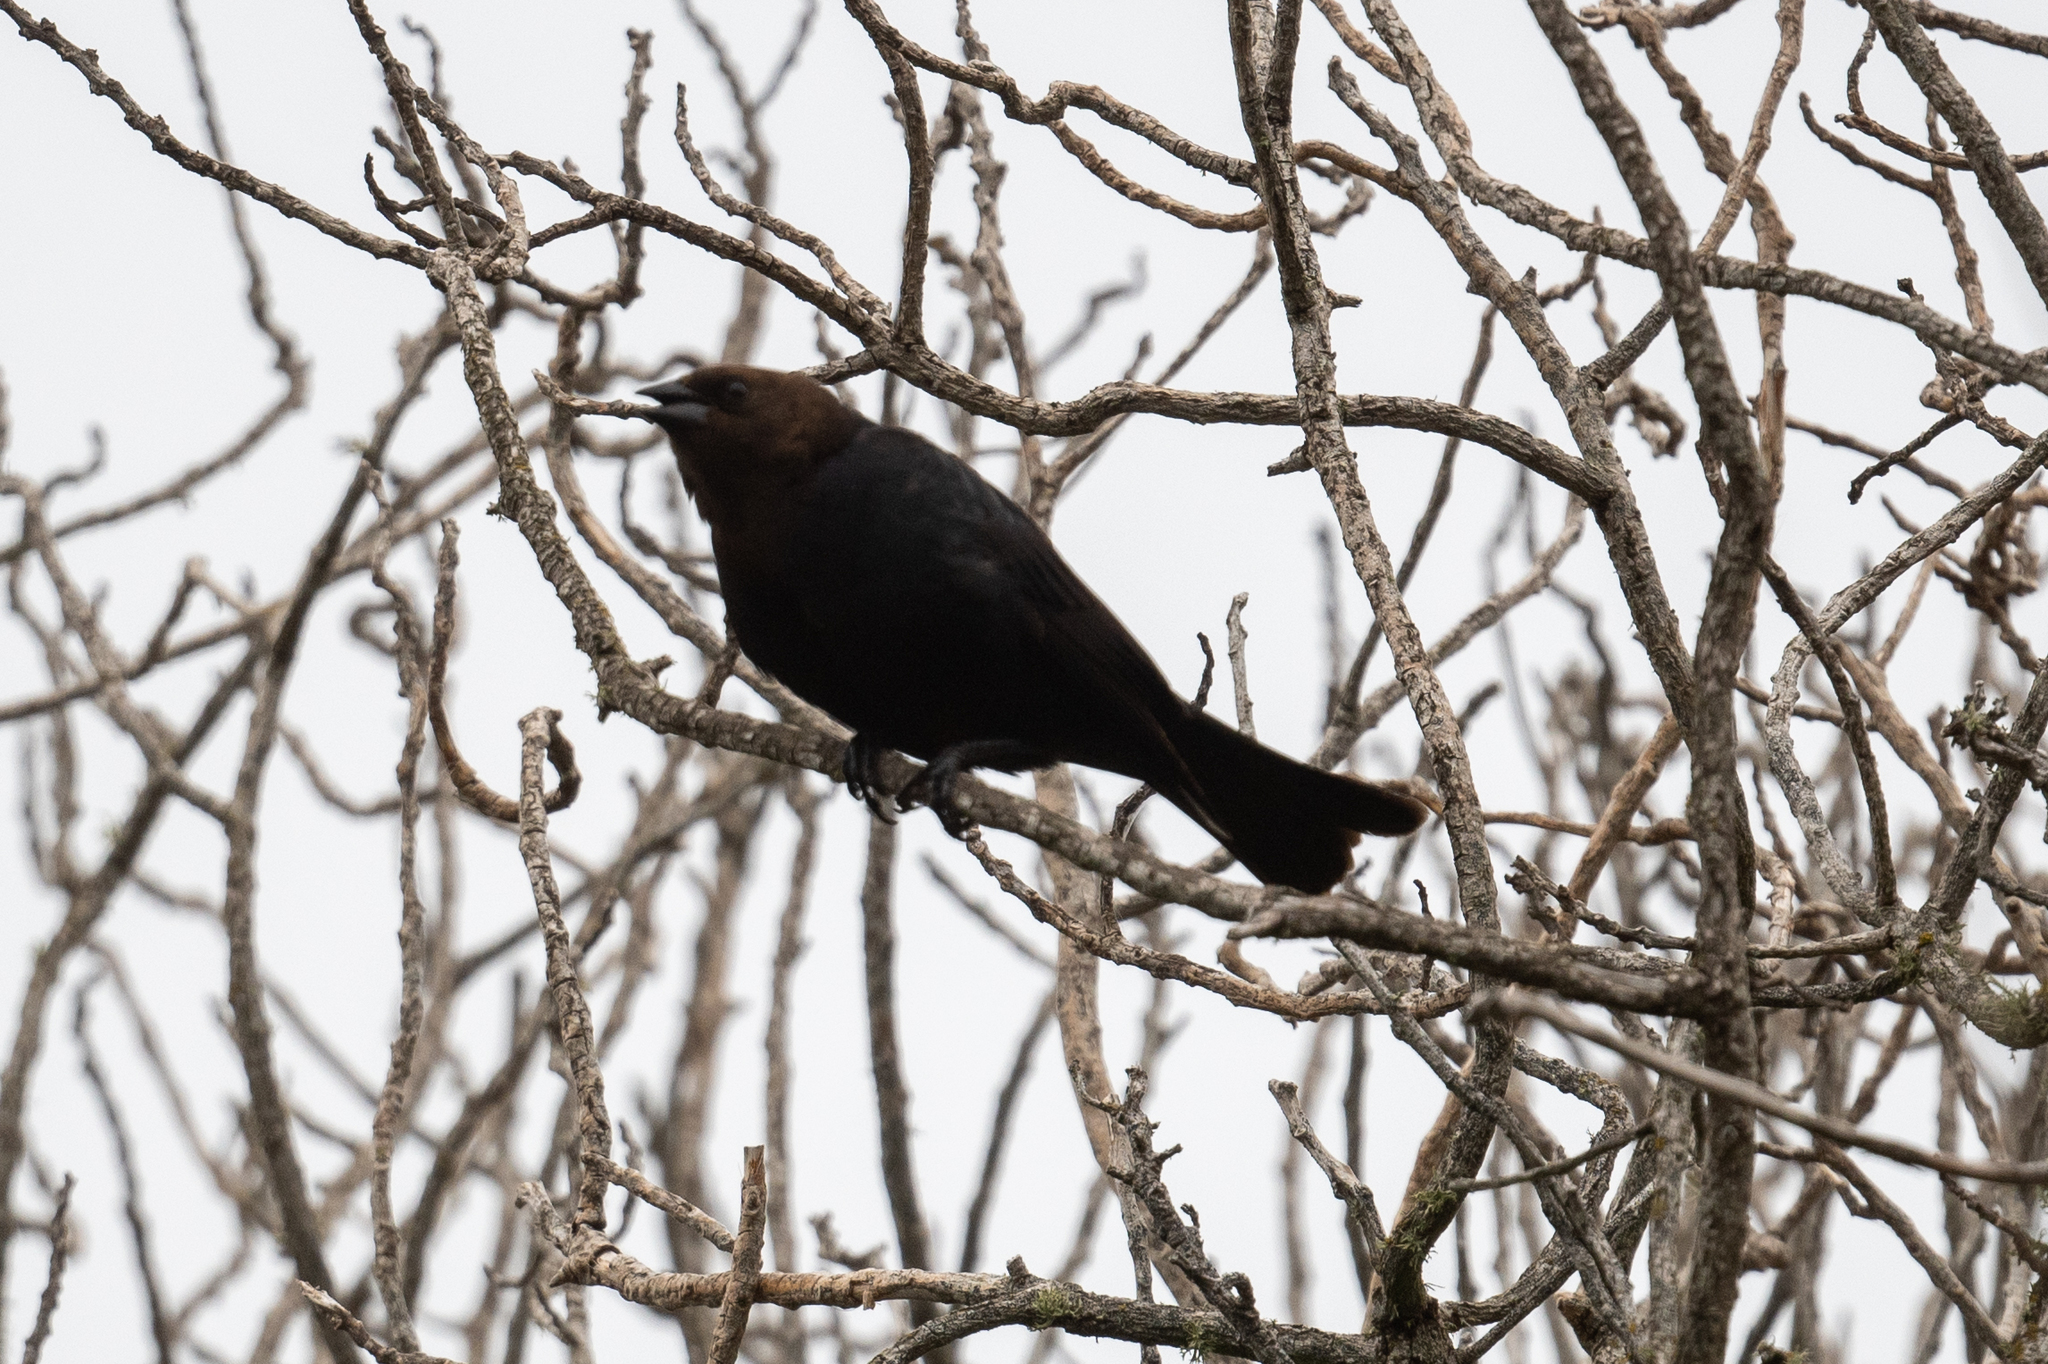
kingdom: Animalia
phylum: Chordata
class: Aves
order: Passeriformes
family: Icteridae
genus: Molothrus
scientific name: Molothrus ater
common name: Brown-headed cowbird
